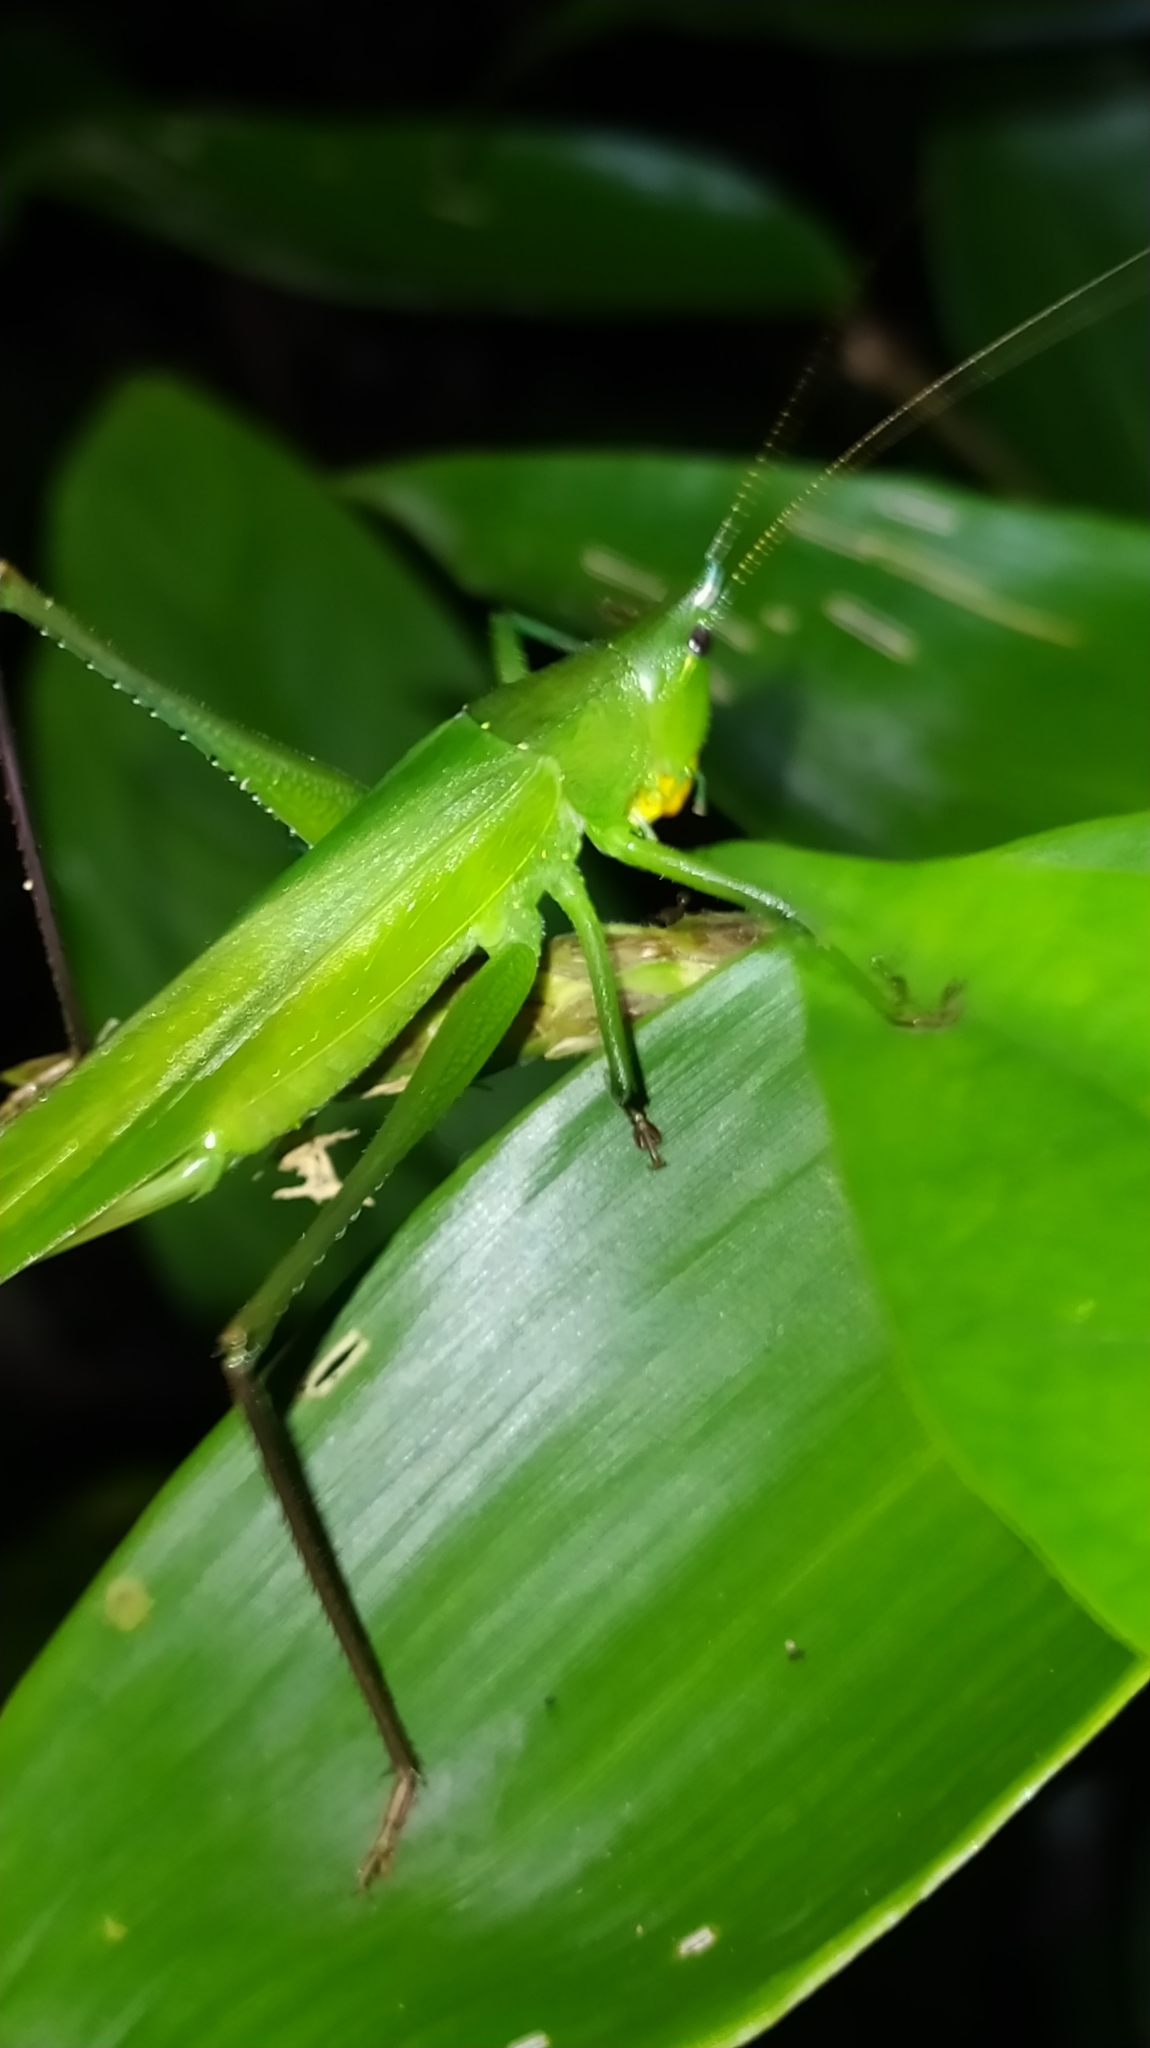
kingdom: Animalia
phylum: Arthropoda
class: Insecta
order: Orthoptera
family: Tettigoniidae
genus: Neoconocephalus
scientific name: Neoconocephalus
